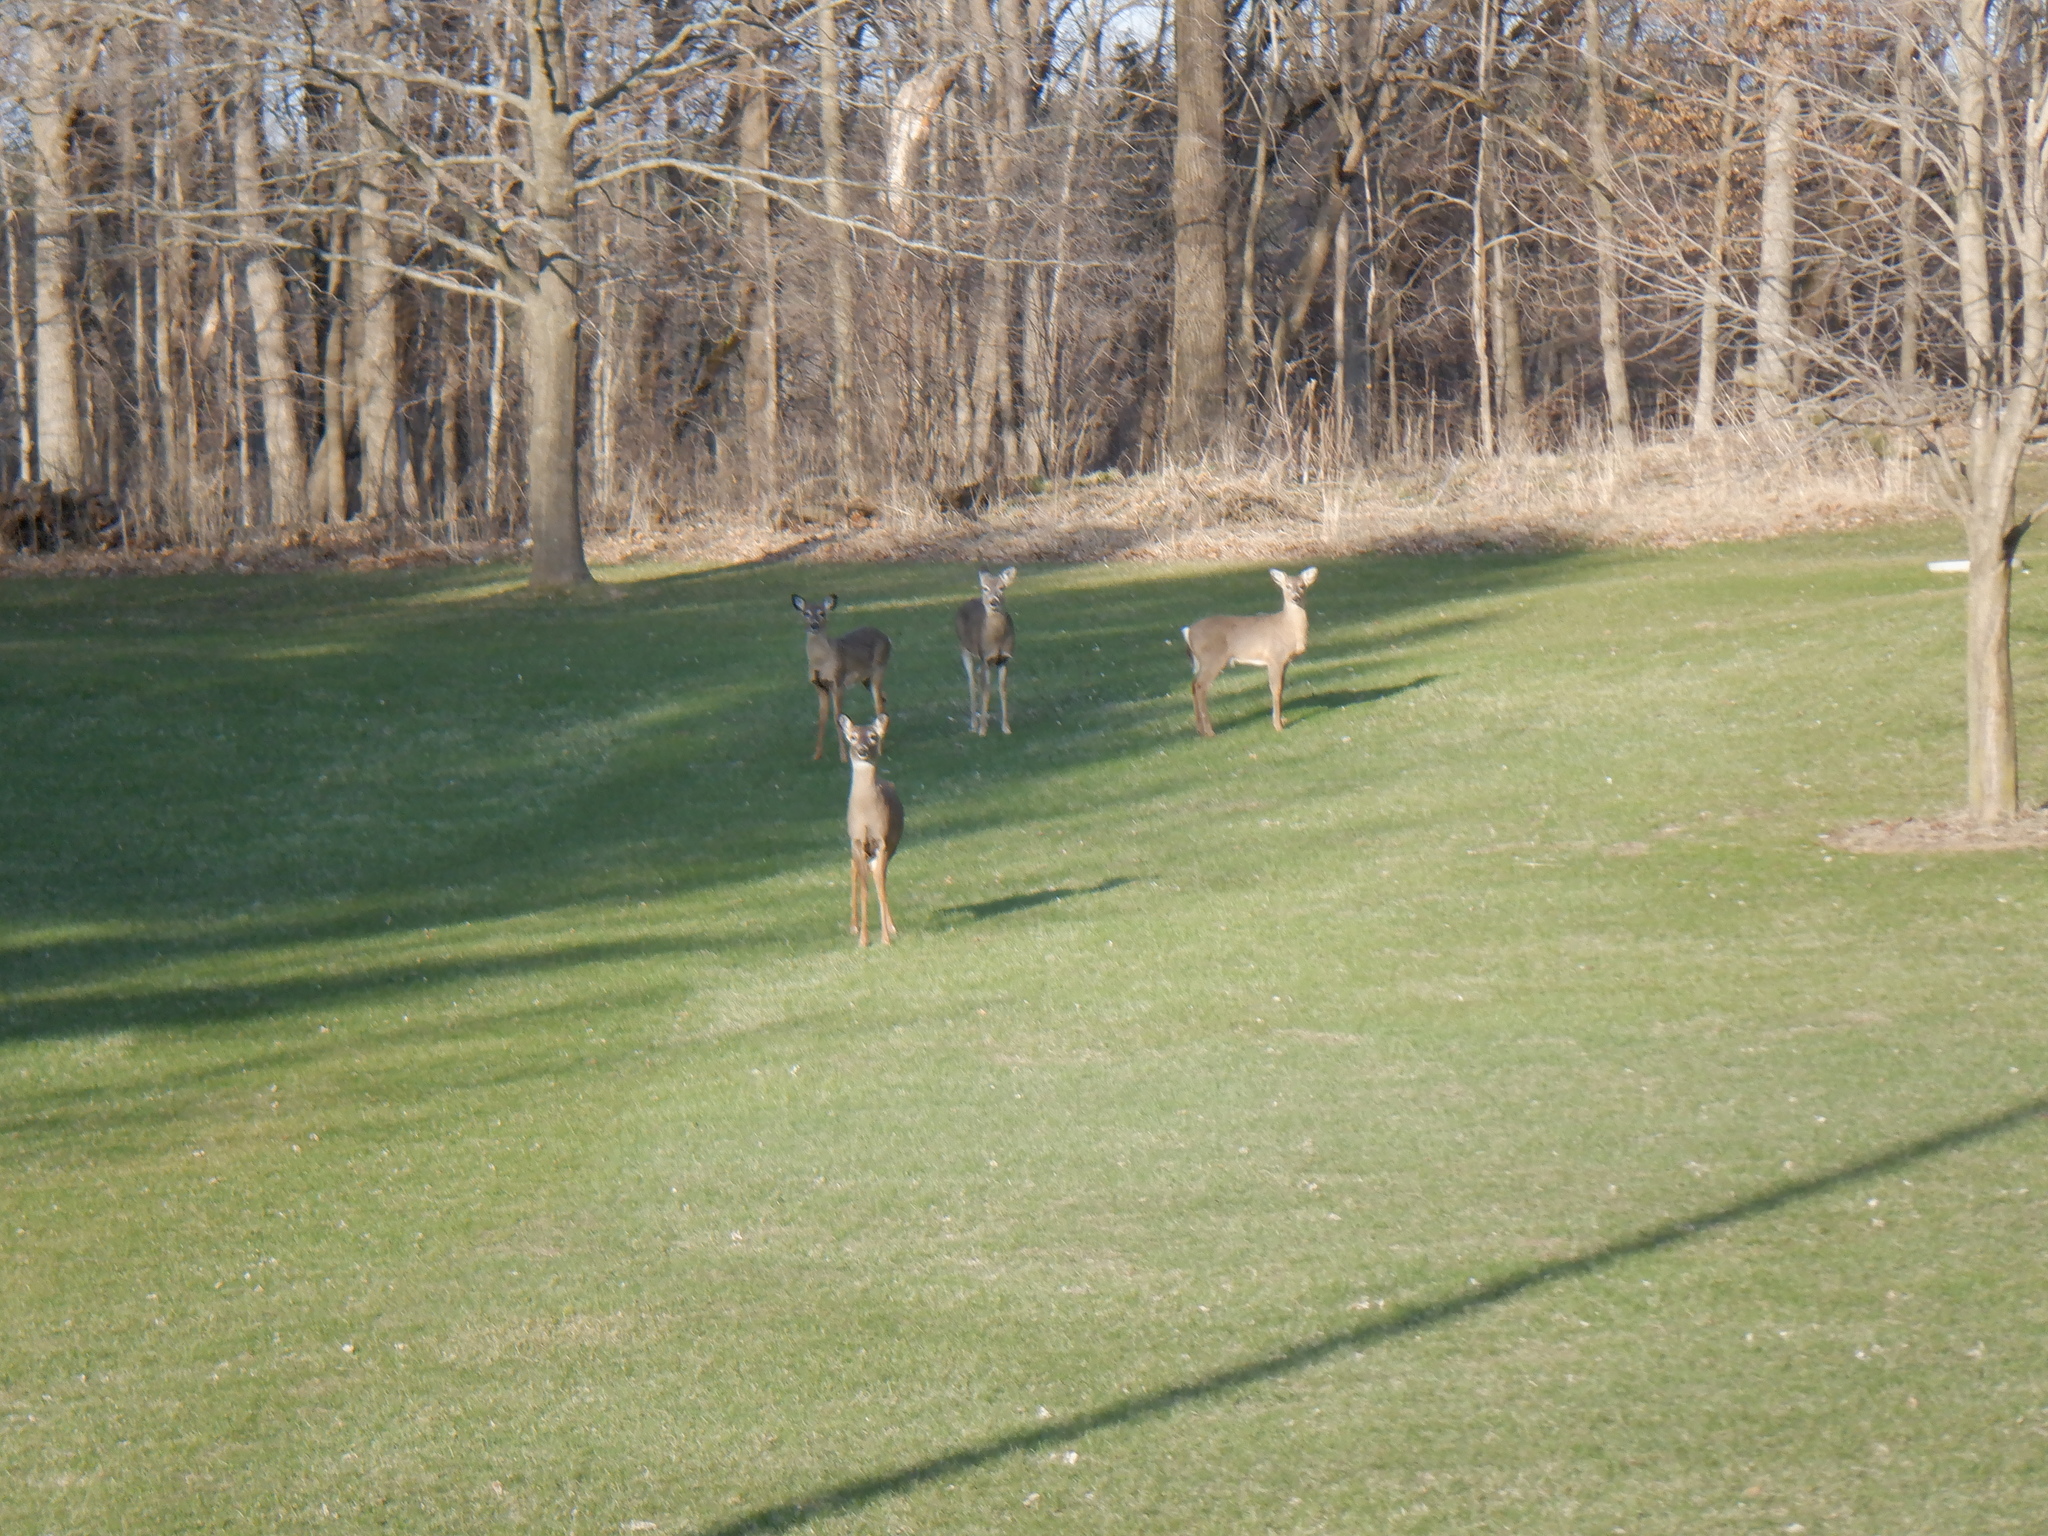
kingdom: Animalia
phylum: Chordata
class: Mammalia
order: Artiodactyla
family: Cervidae
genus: Odocoileus
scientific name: Odocoileus virginianus
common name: White-tailed deer
